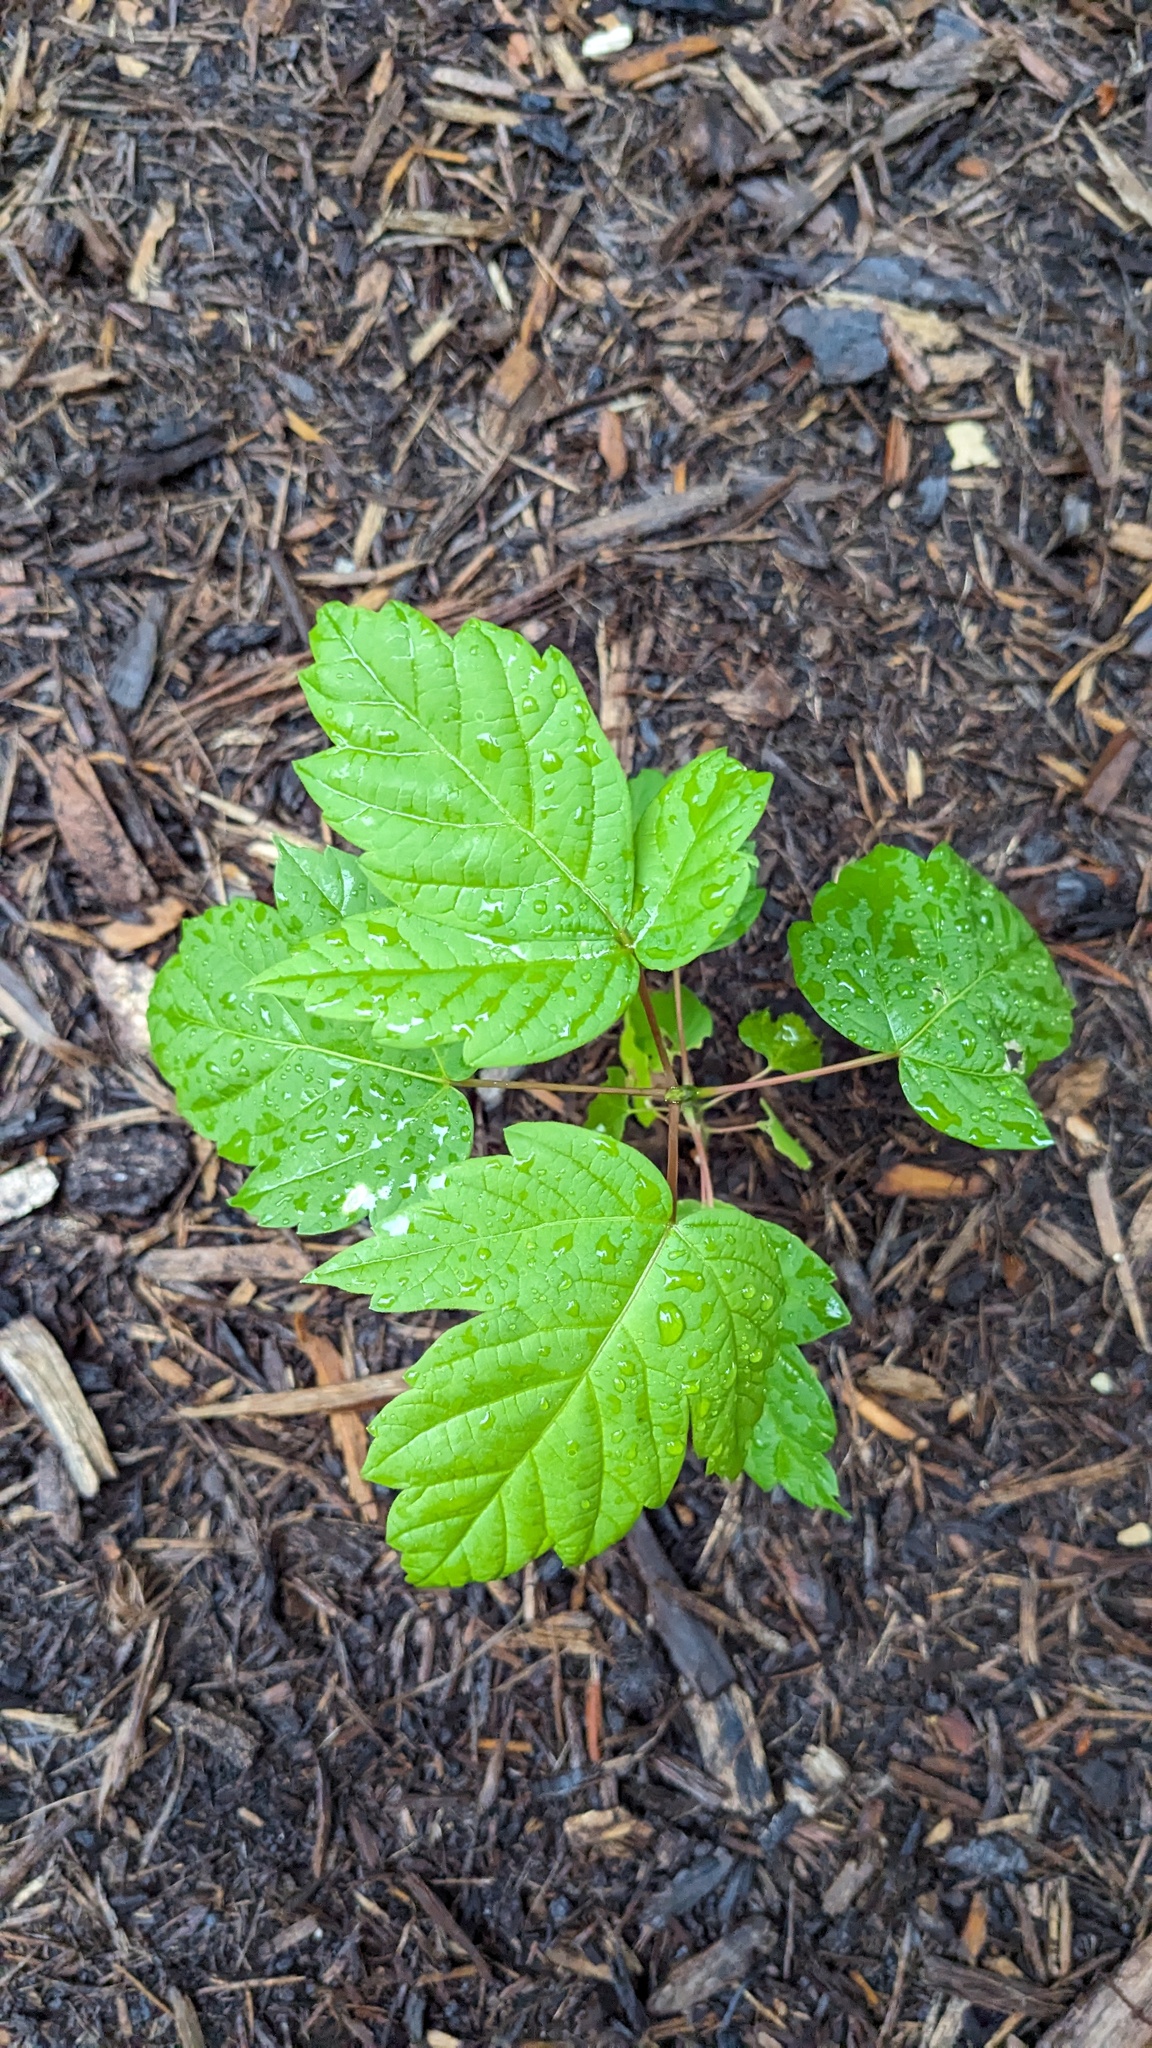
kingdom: Plantae
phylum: Tracheophyta
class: Magnoliopsida
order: Sapindales
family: Sapindaceae
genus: Acer
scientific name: Acer negundo
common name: Ashleaf maple
